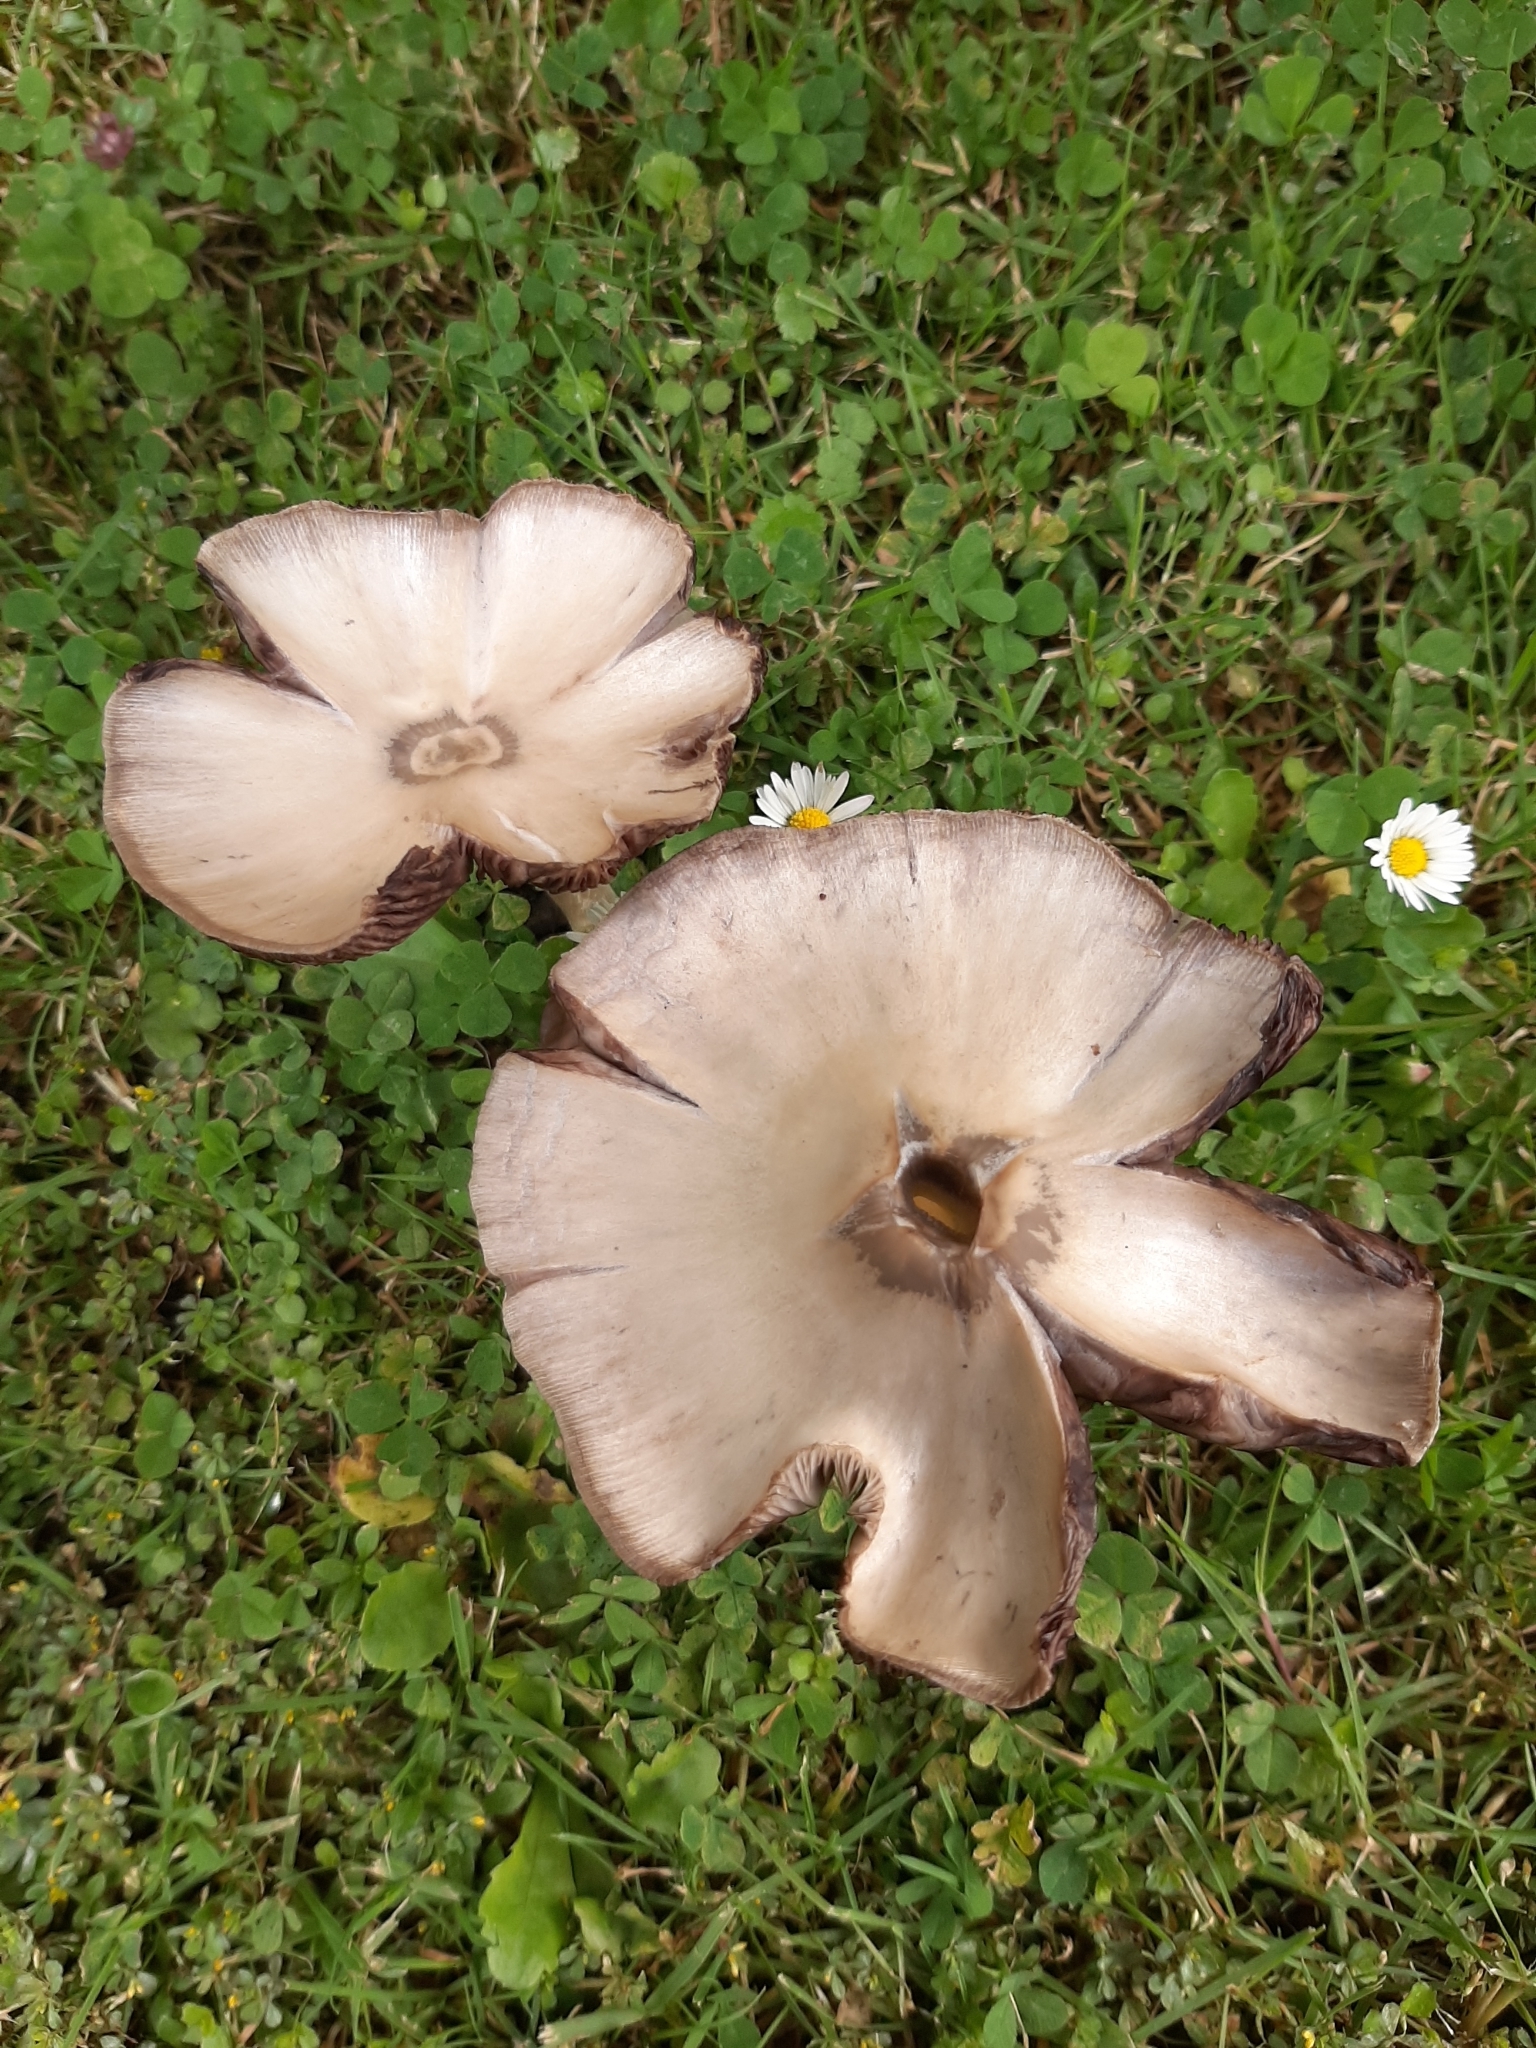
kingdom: Fungi
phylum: Basidiomycota
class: Agaricomycetes
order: Agaricales
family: Psathyrellaceae
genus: Candolleomyces
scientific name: Candolleomyces candolleanus
